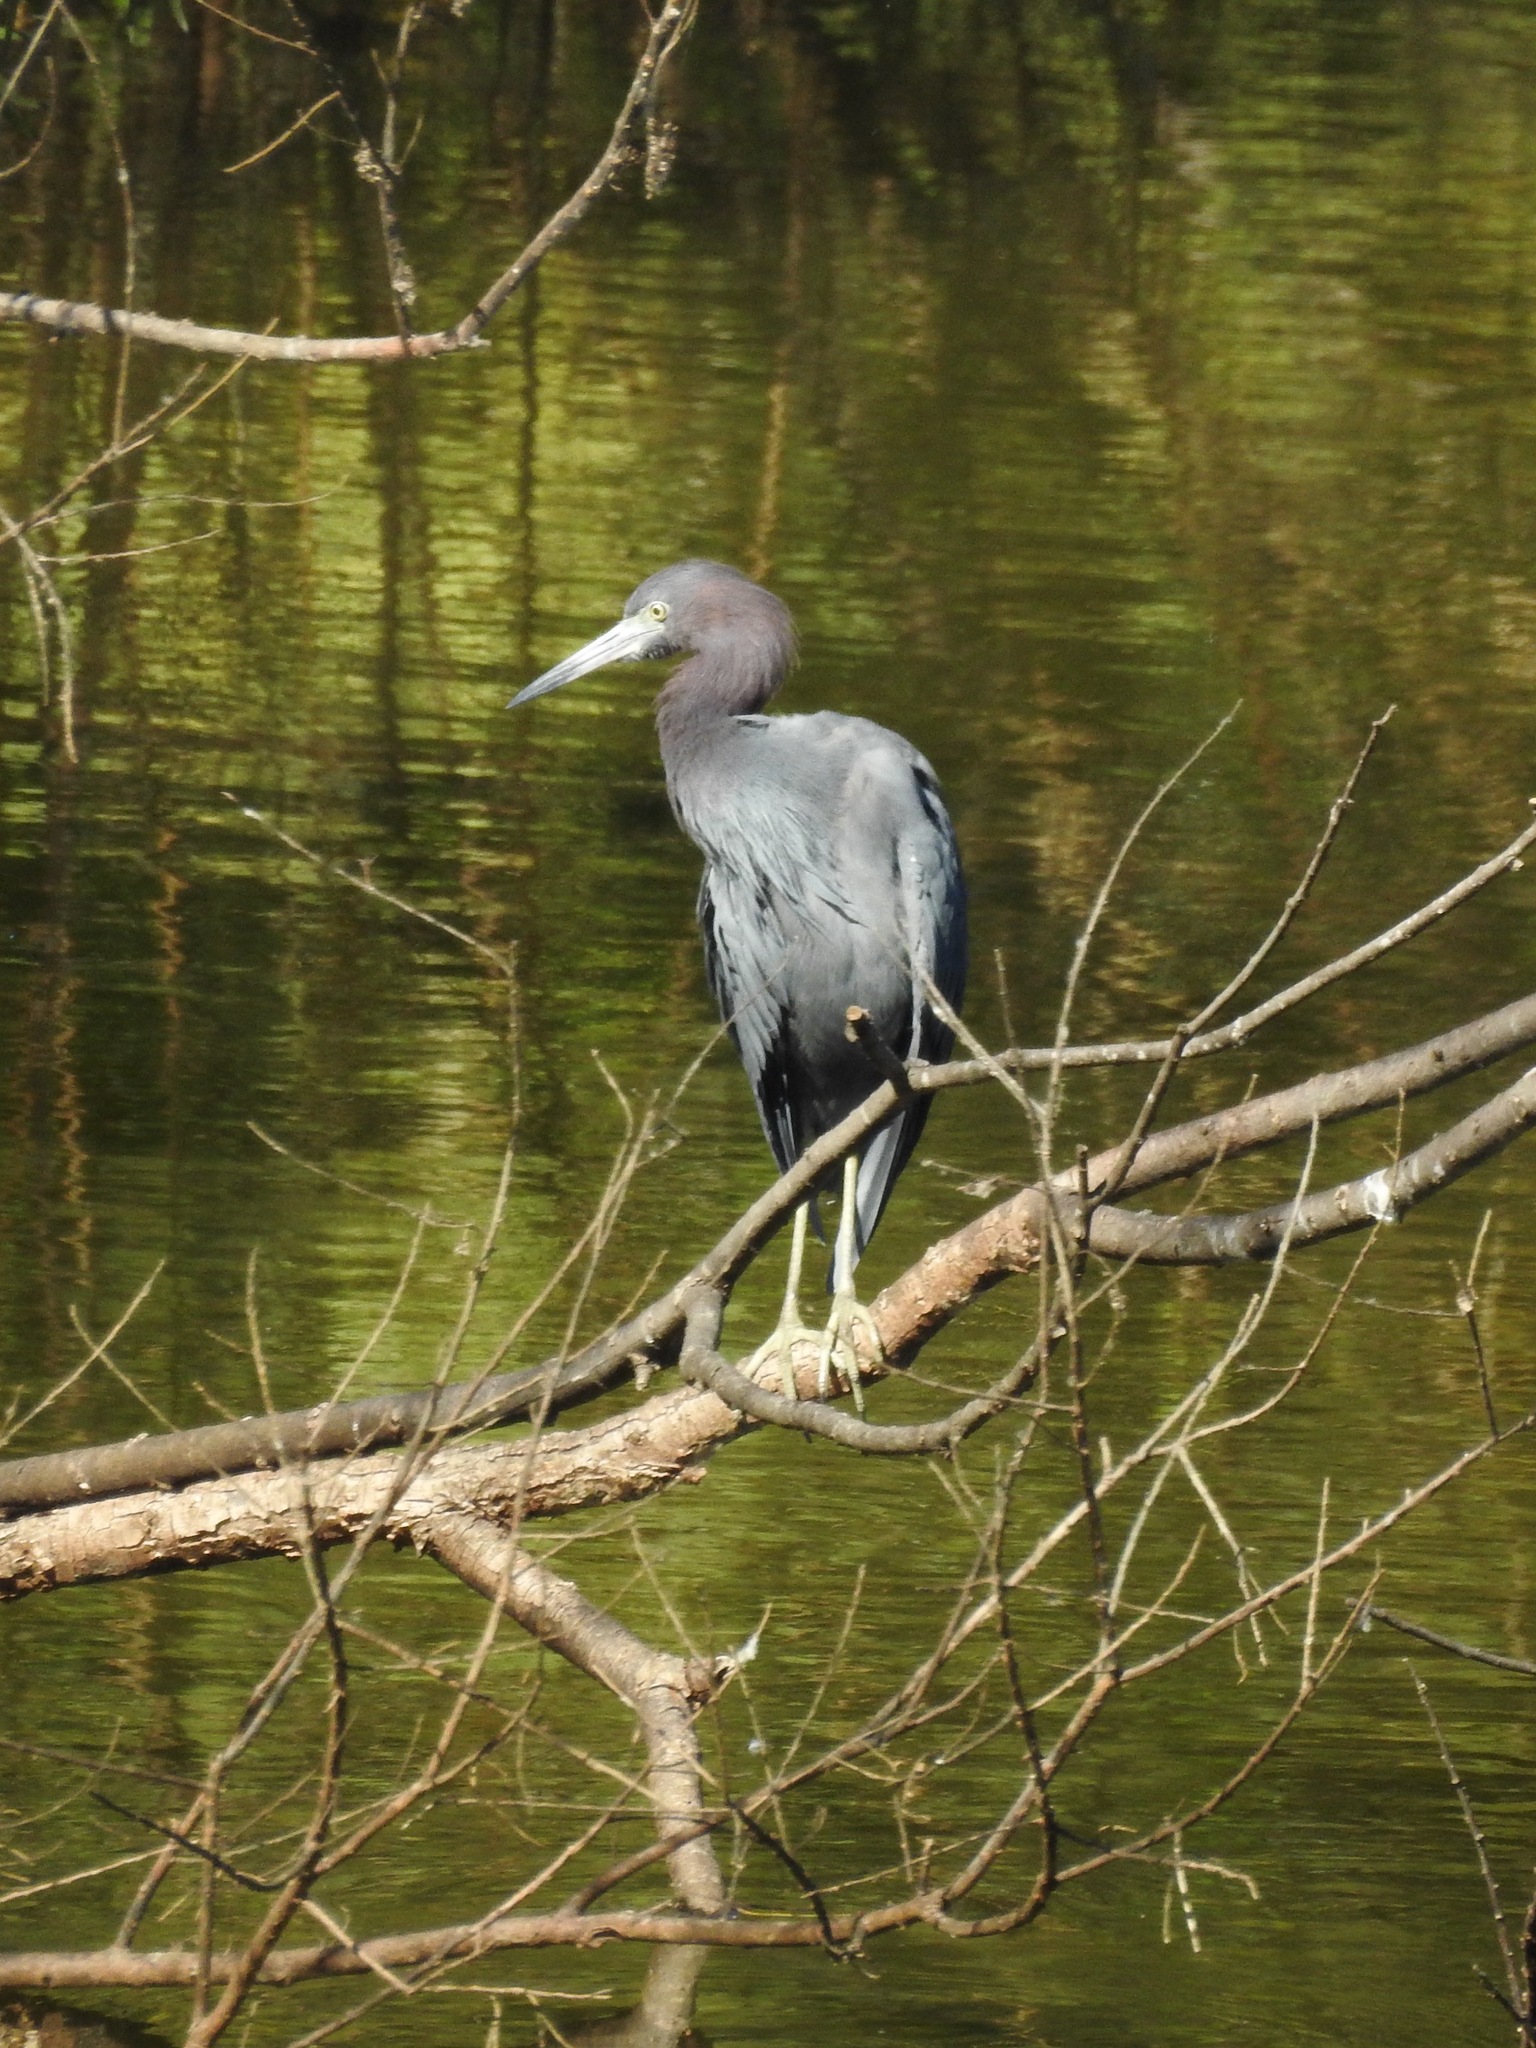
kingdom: Animalia
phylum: Chordata
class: Aves
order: Pelecaniformes
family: Ardeidae
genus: Egretta
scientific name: Egretta caerulea
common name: Little blue heron
